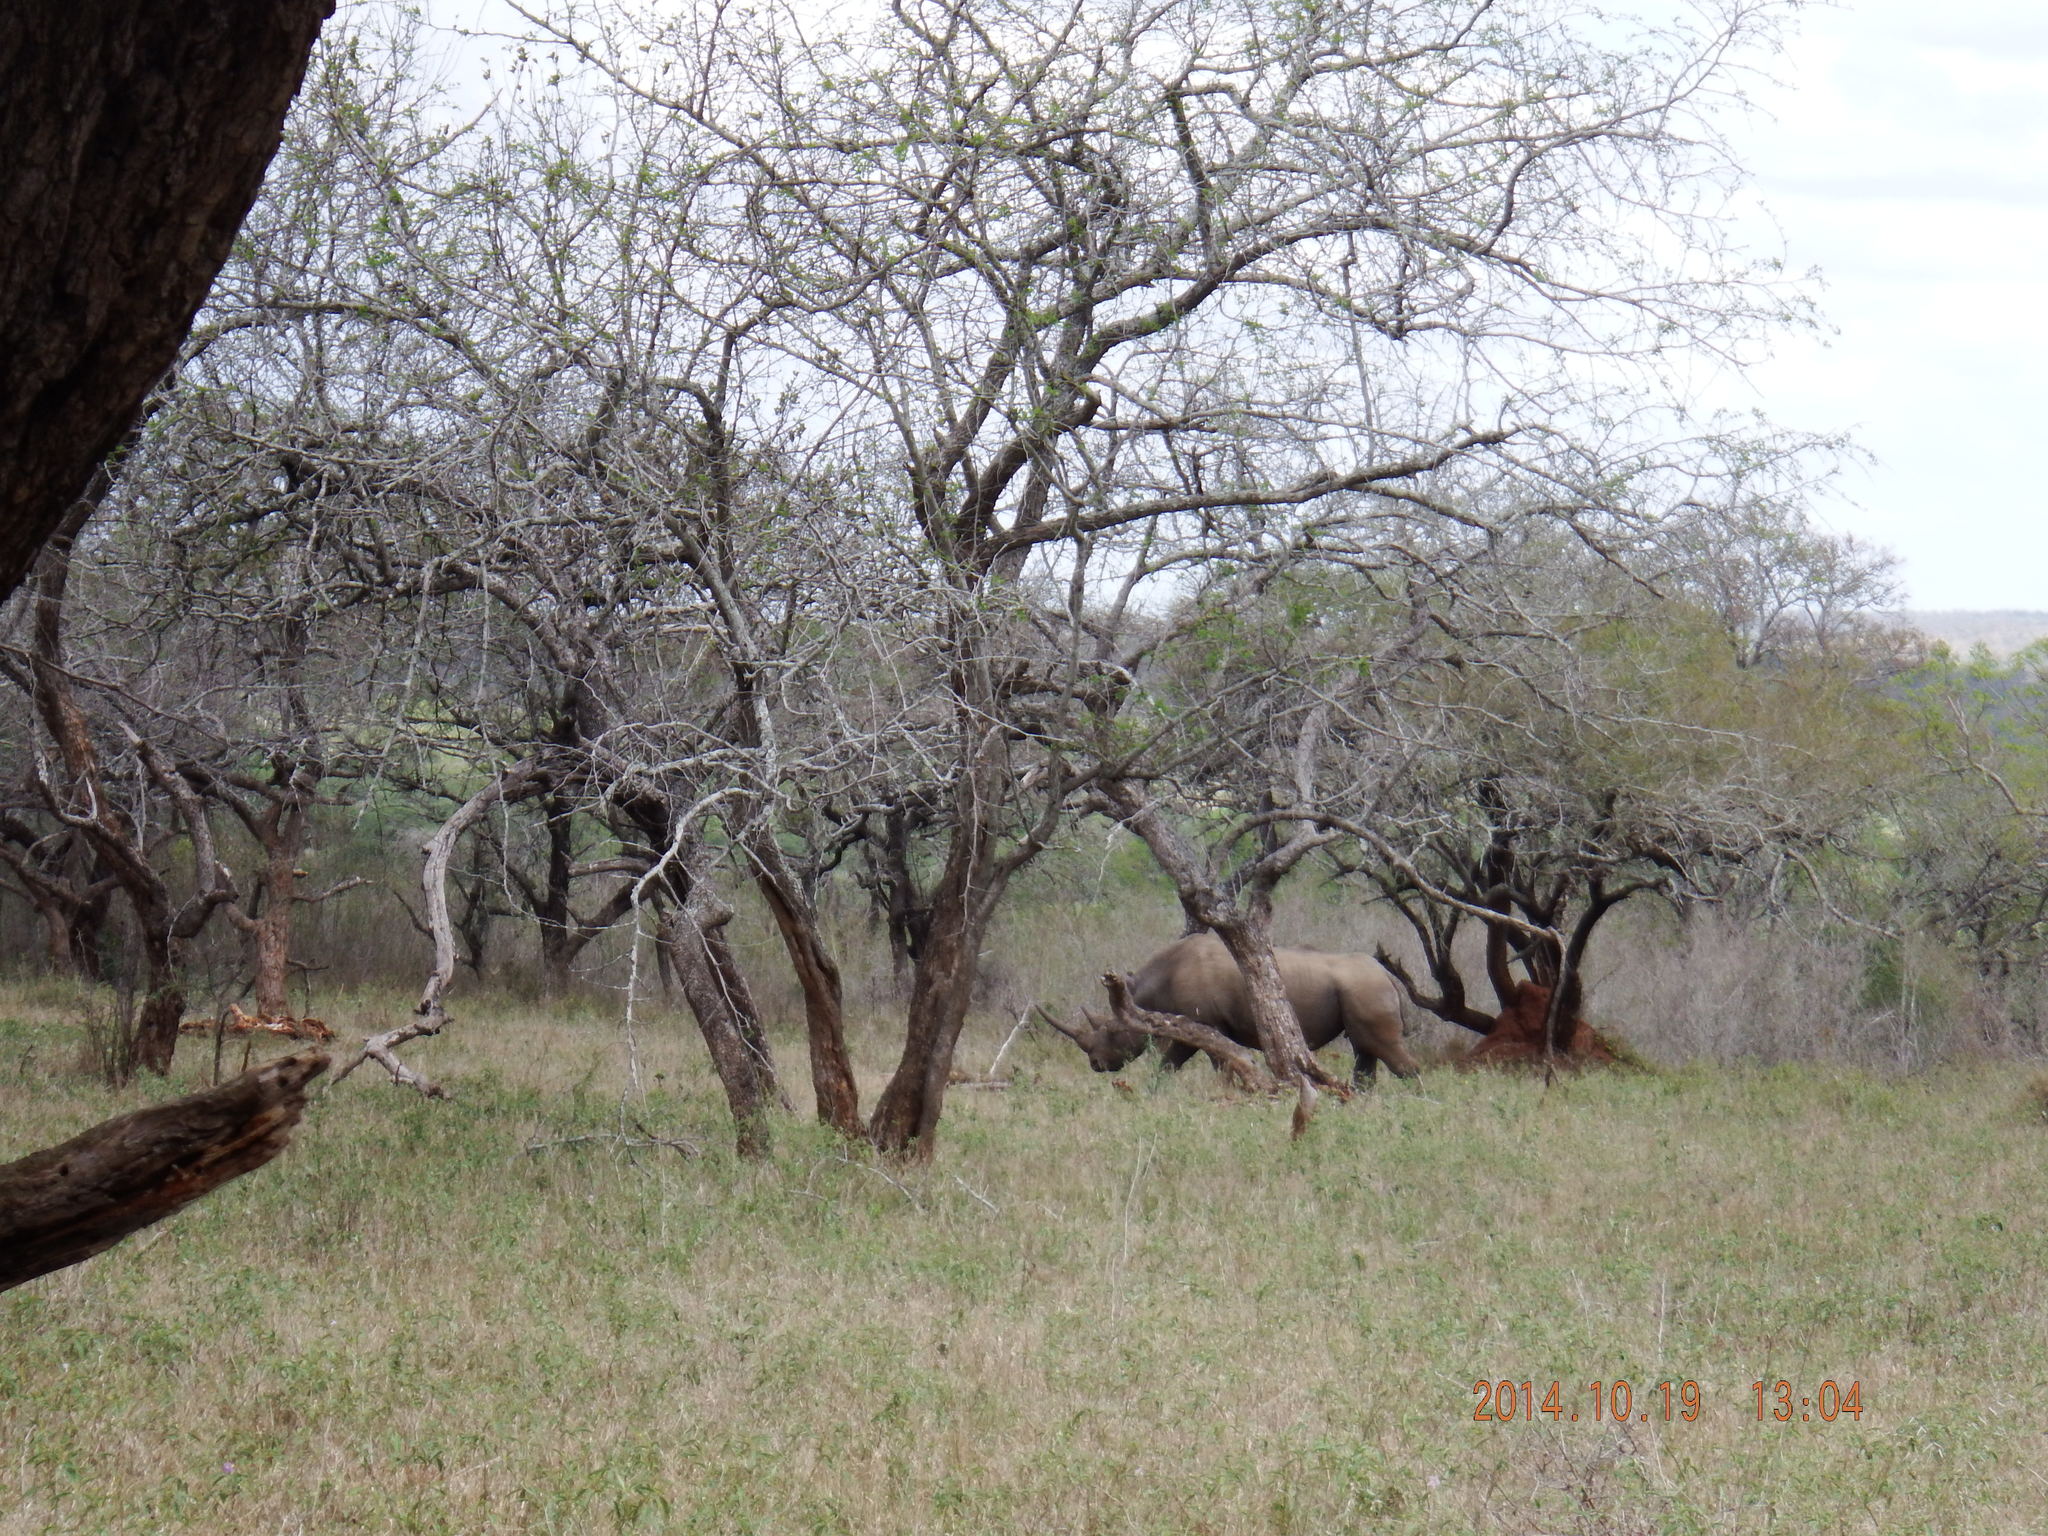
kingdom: Animalia
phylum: Chordata
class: Mammalia
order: Perissodactyla
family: Rhinocerotidae
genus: Ceratotherium
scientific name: Ceratotherium simum
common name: White rhinoceros
